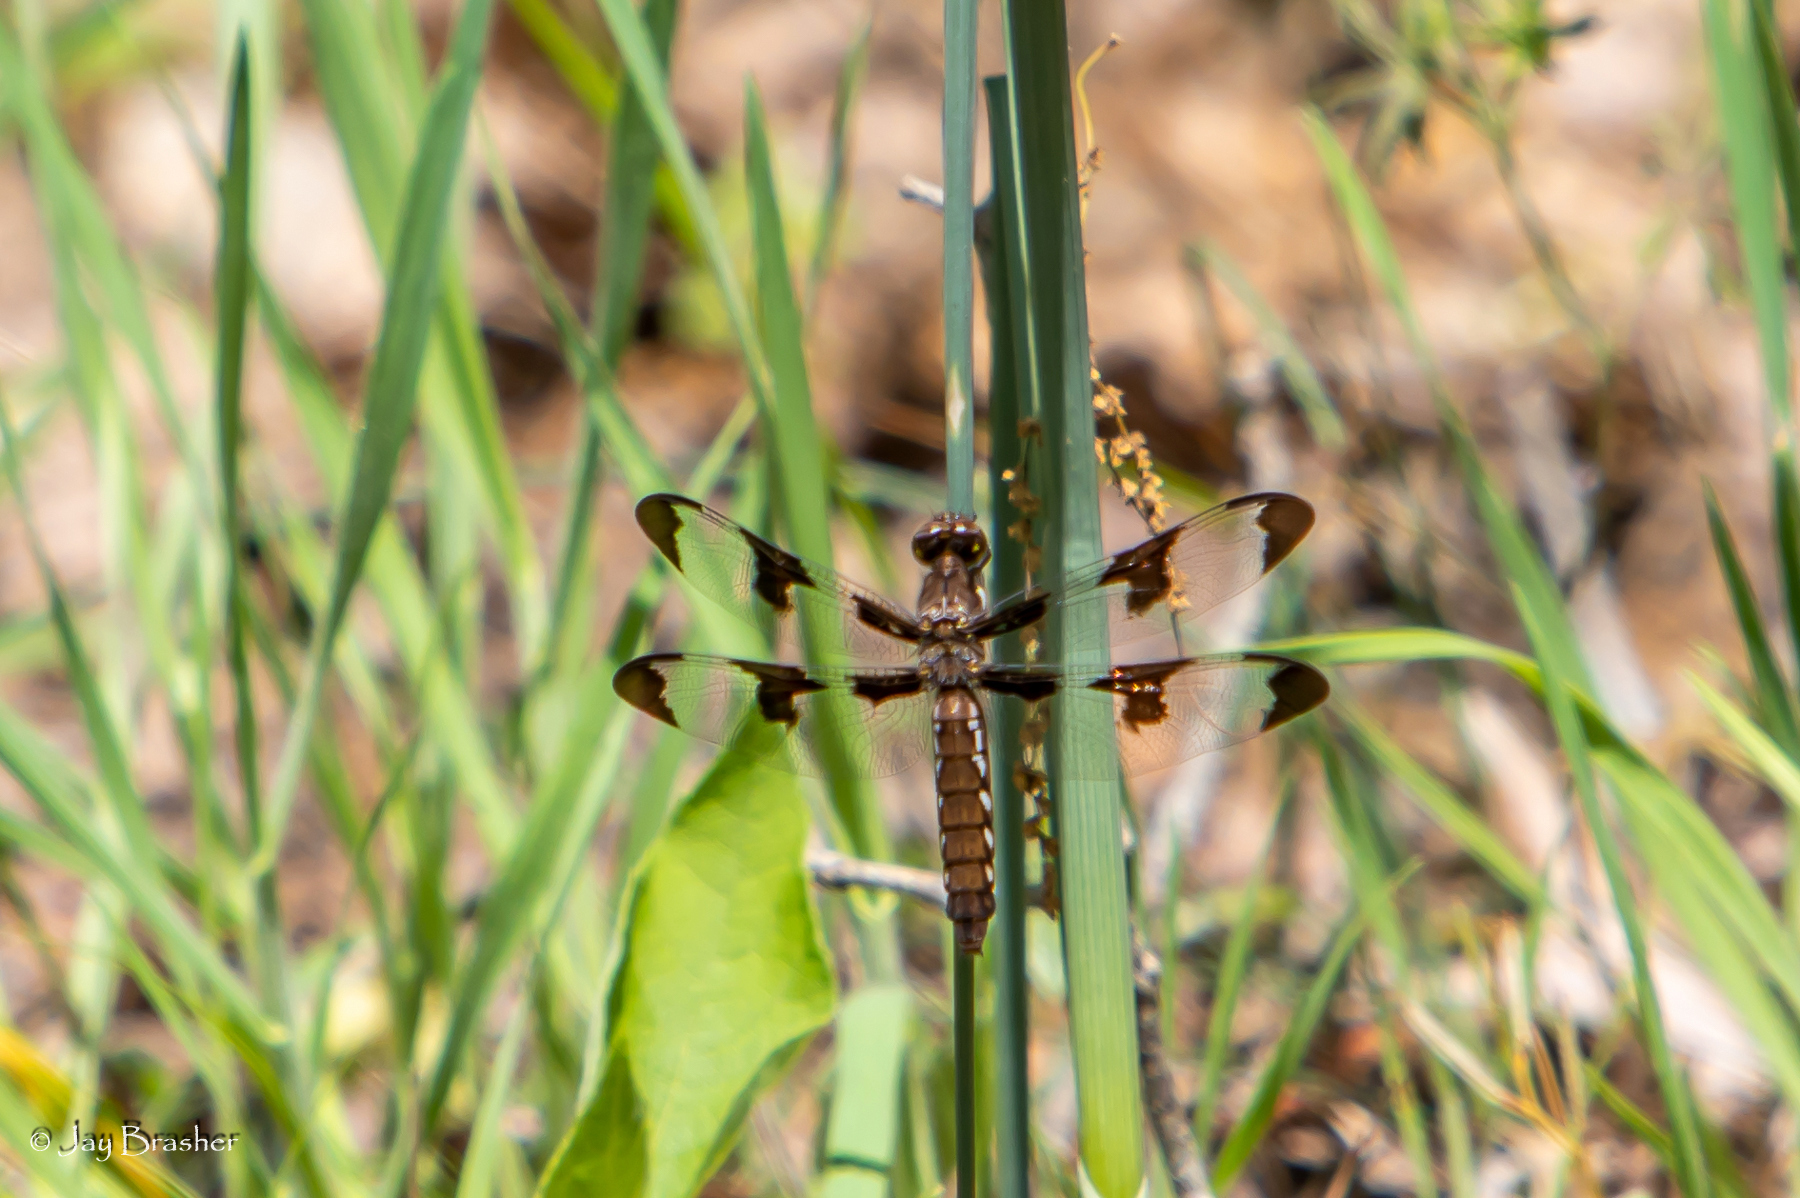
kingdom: Animalia
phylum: Arthropoda
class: Insecta
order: Odonata
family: Libellulidae
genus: Plathemis
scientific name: Plathemis lydia
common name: Common whitetail
